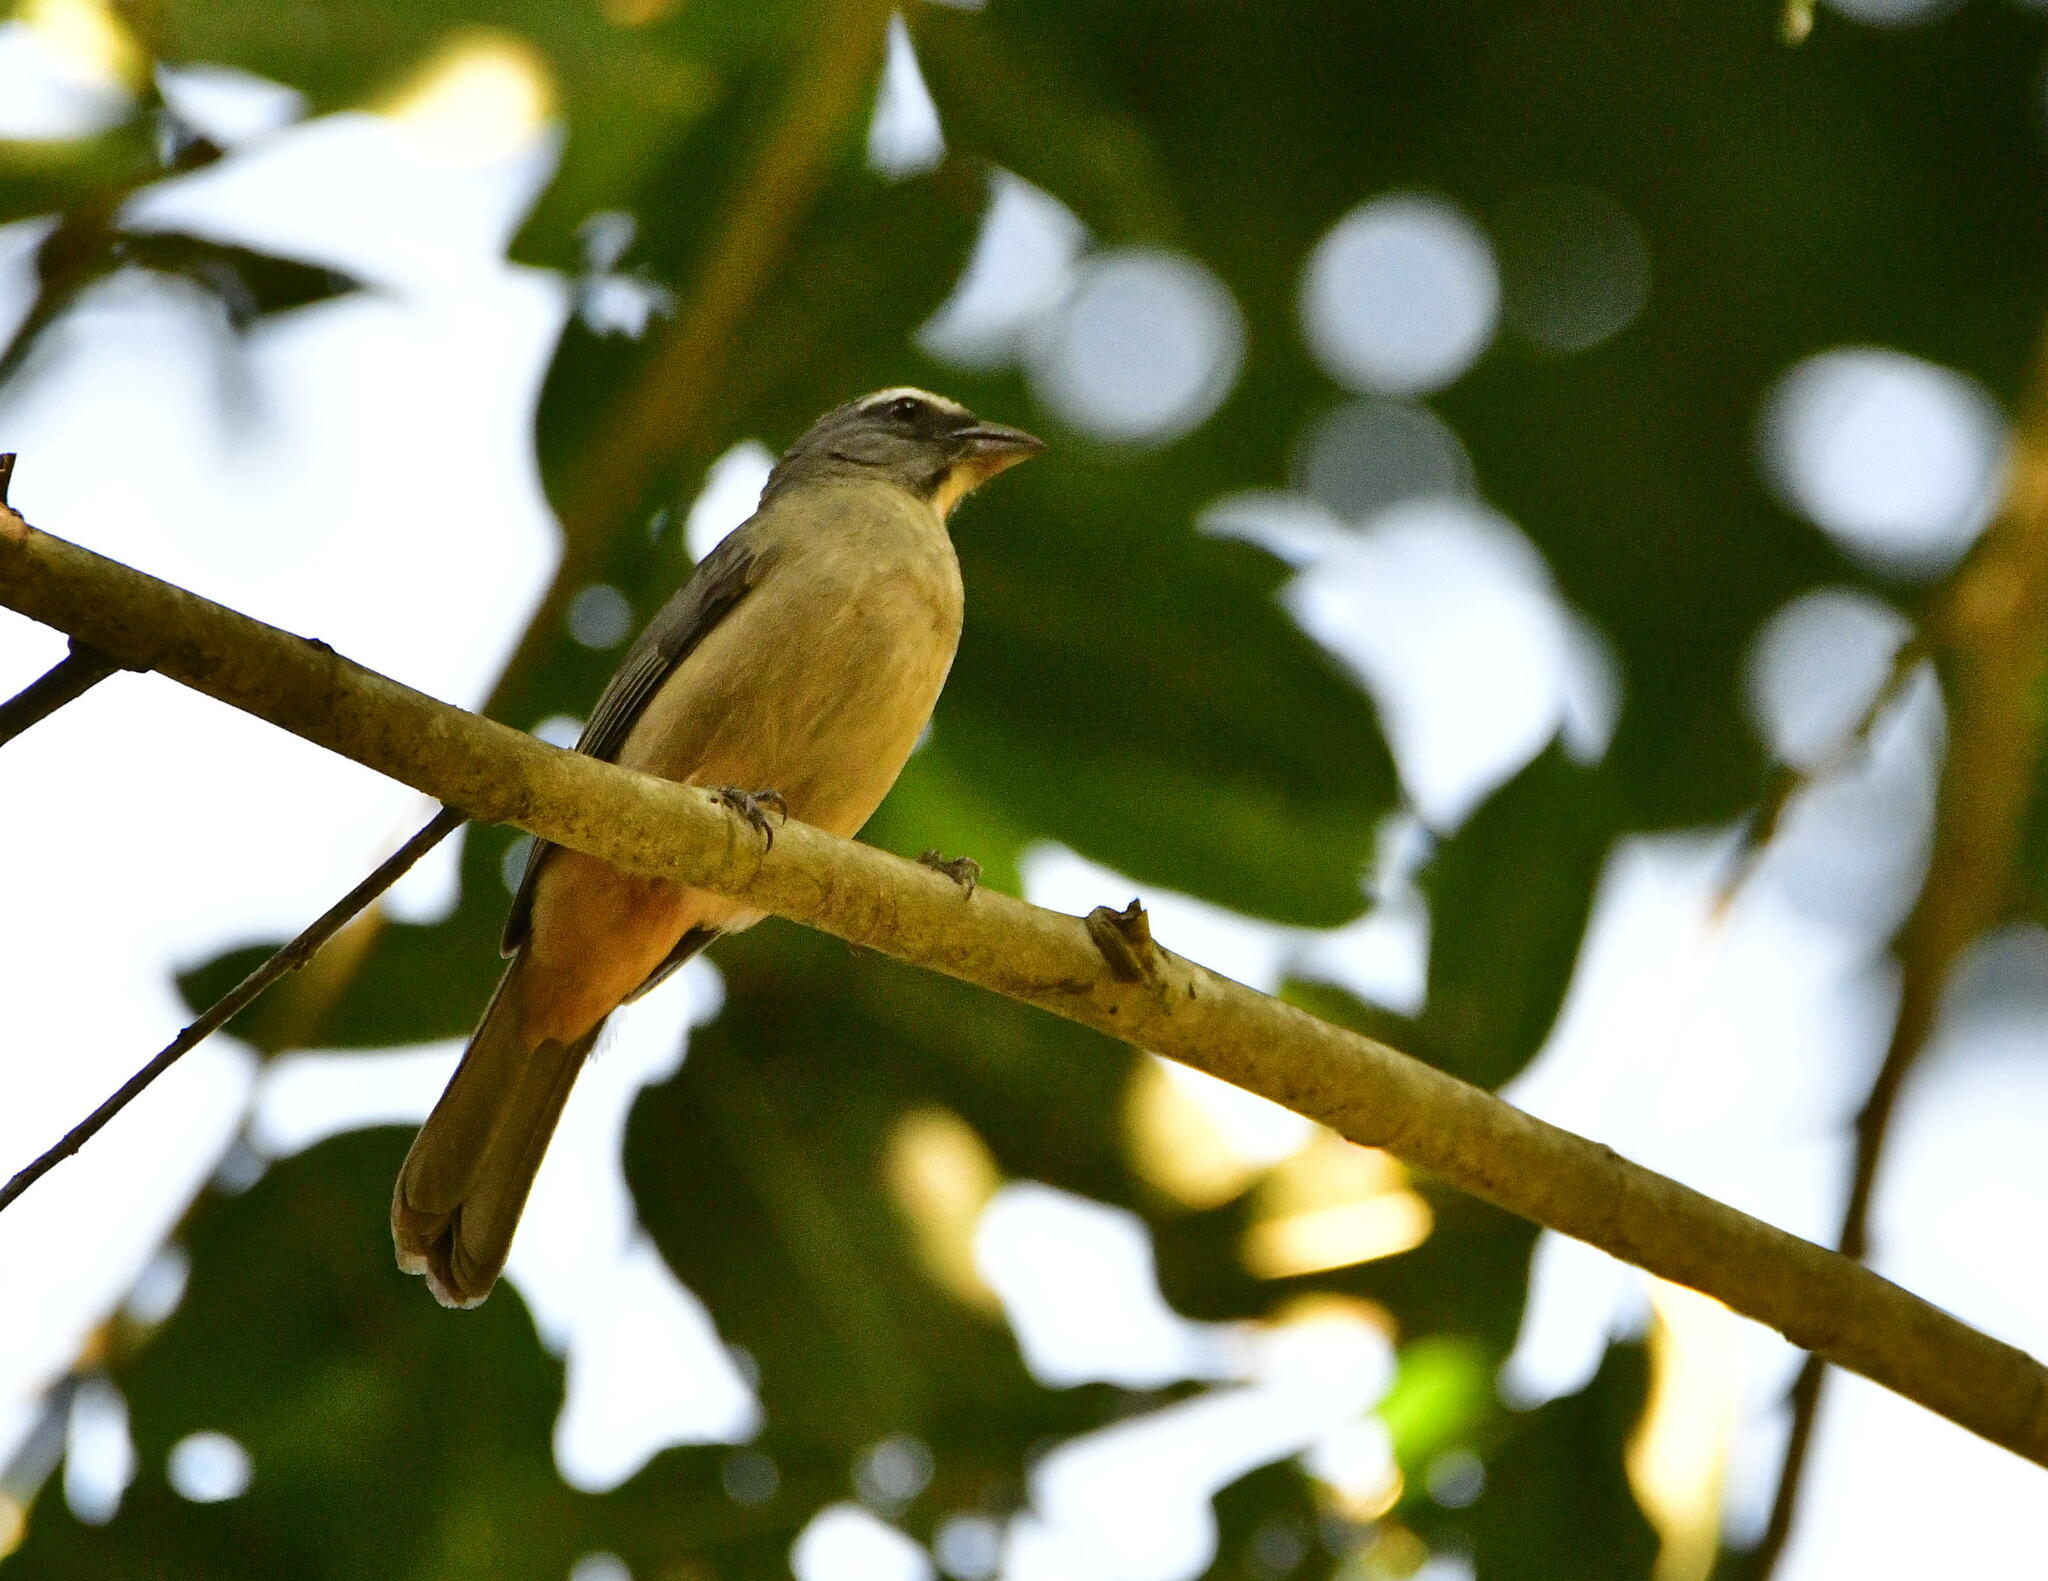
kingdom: Animalia
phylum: Chordata
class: Aves
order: Passeriformes
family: Thraupidae
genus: Saltator
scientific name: Saltator grandis
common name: Cinnamon-bellied saltator
